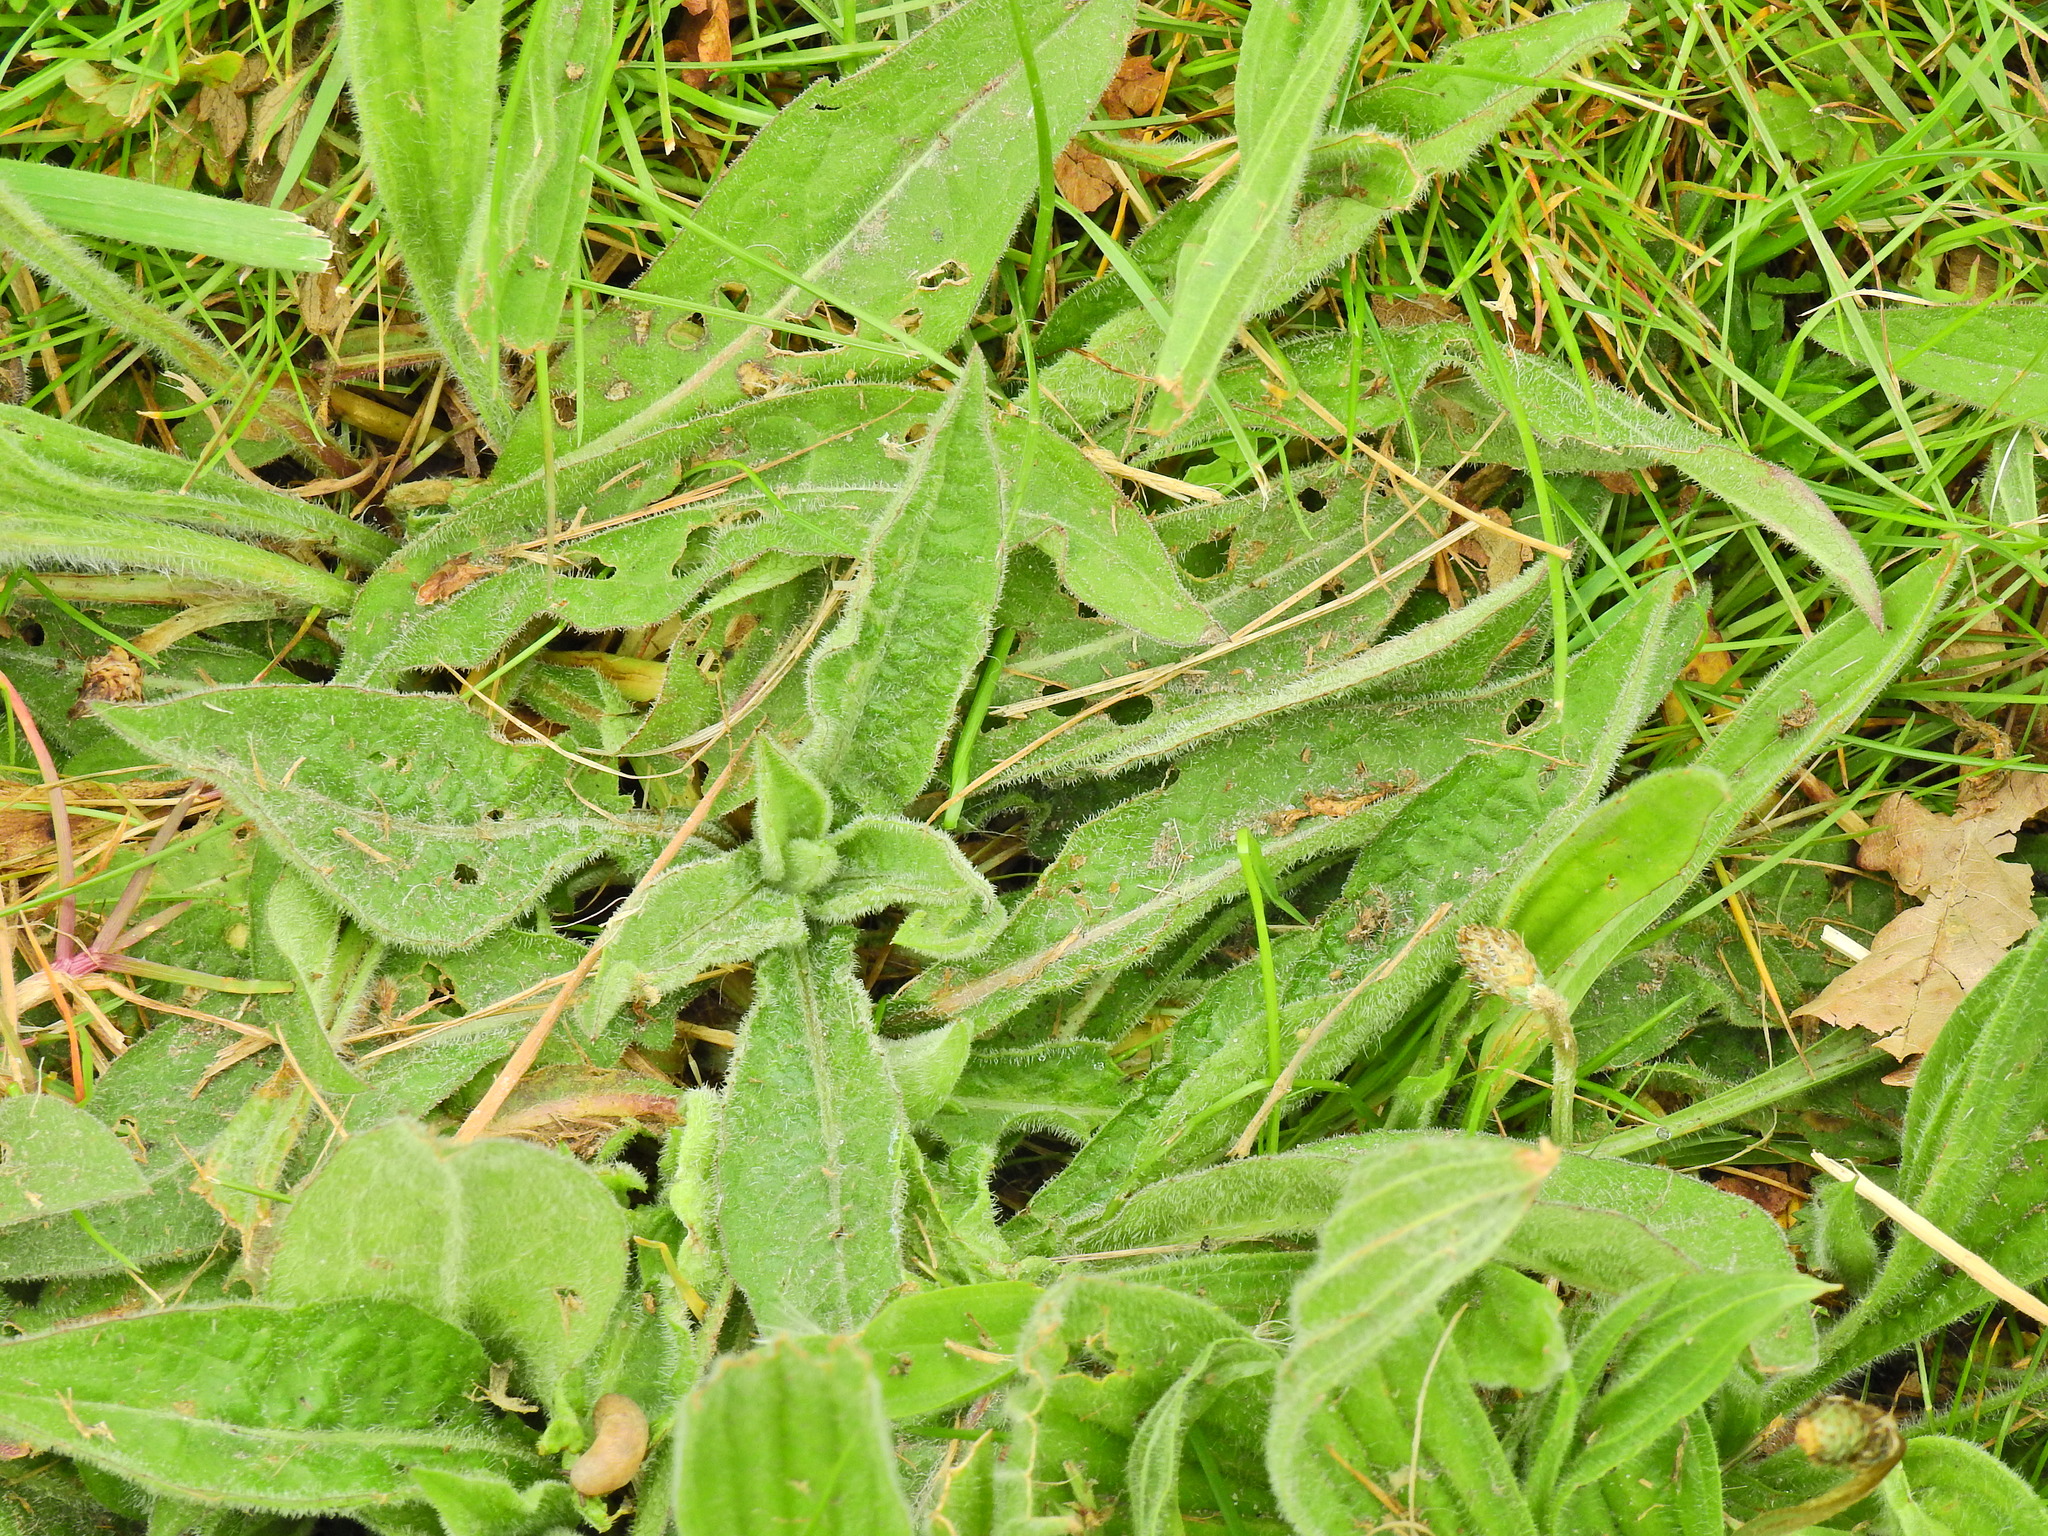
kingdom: Plantae
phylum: Tracheophyta
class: Magnoliopsida
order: Asterales
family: Asteraceae
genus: Centaurea
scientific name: Centaurea nigra
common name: Lesser knapweed
